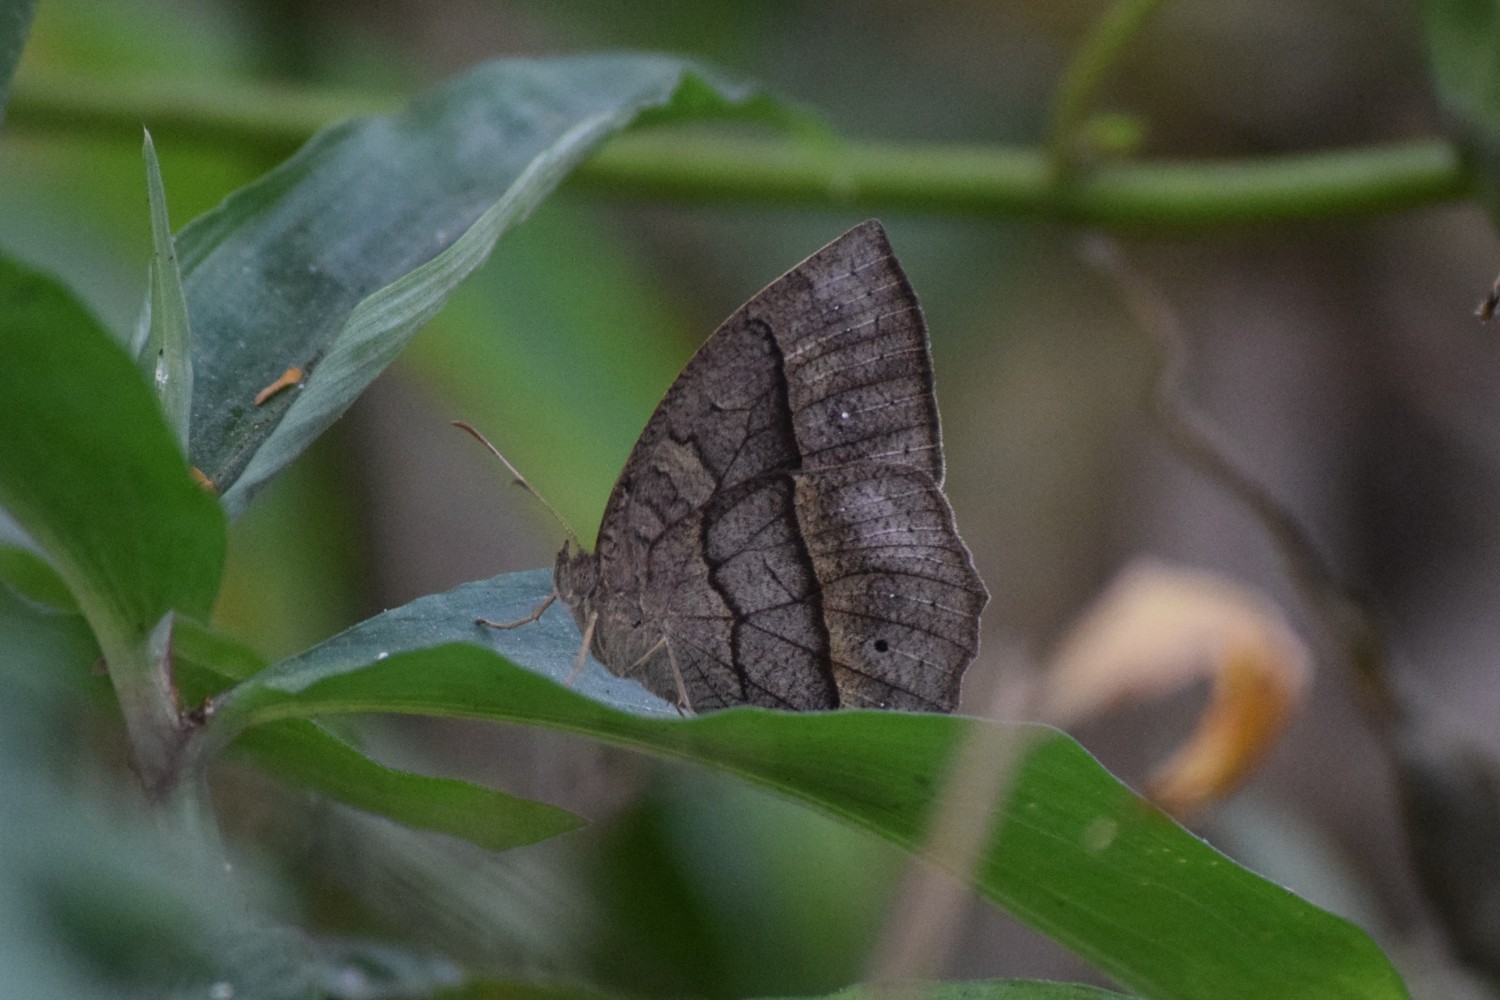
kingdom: Animalia
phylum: Arthropoda
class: Insecta
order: Lepidoptera
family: Nymphalidae
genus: Mycalesis
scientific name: Mycalesis visala
